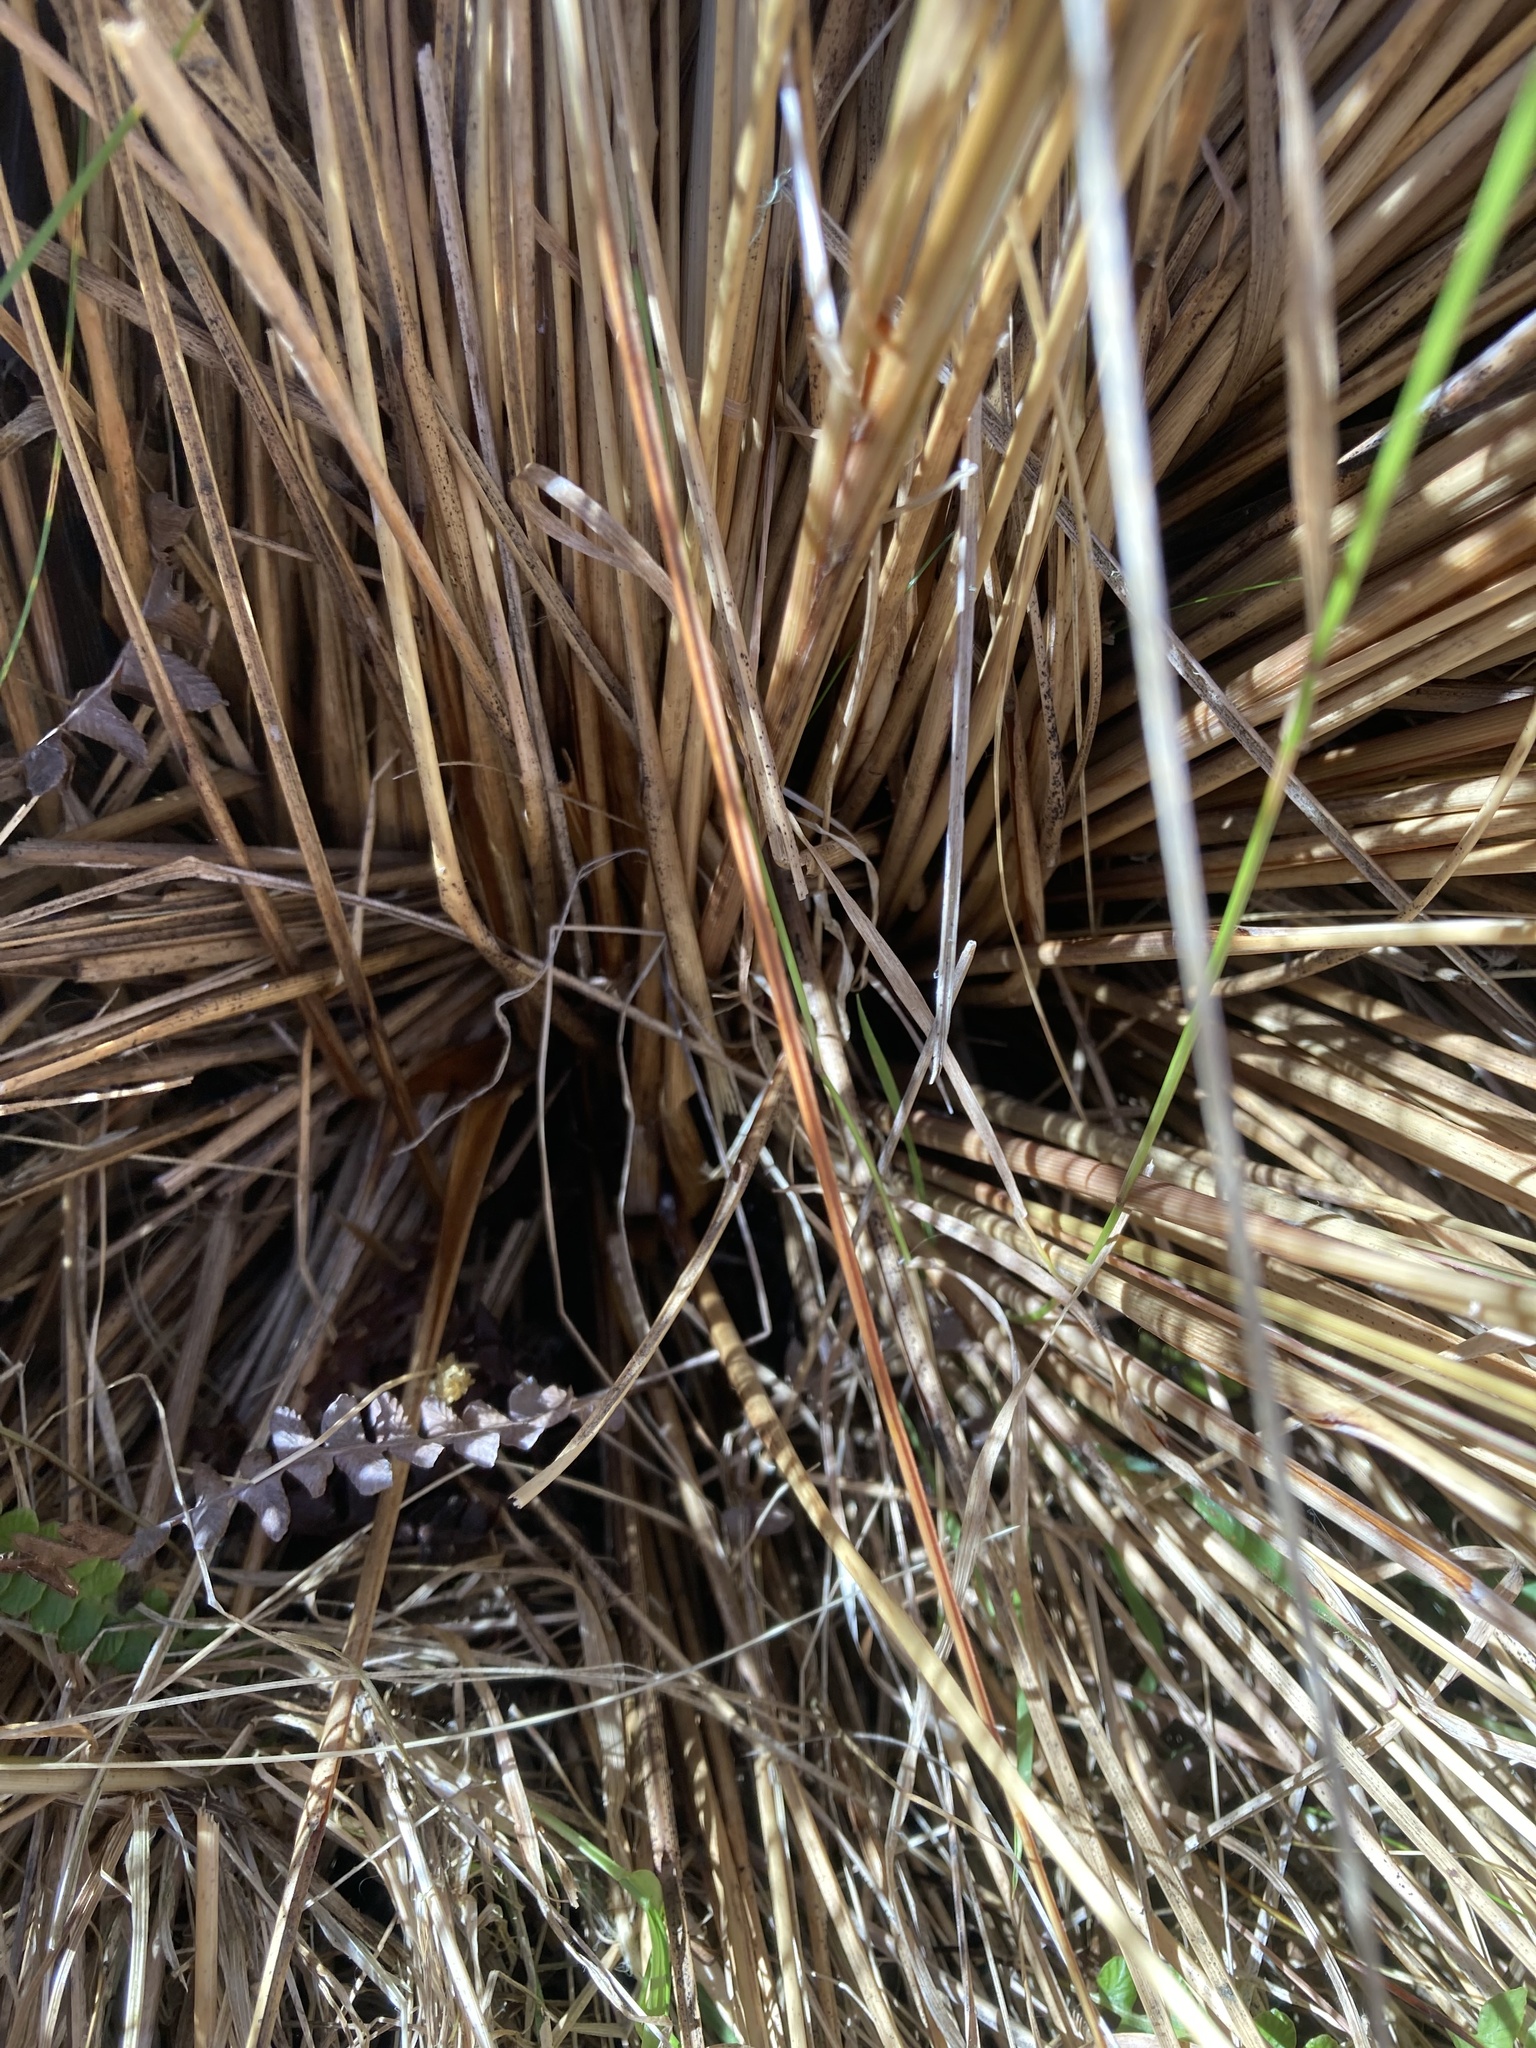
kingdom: Plantae
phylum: Tracheophyta
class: Liliopsida
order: Poales
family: Poaceae
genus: Chionochloa
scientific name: Chionochloa rubra
